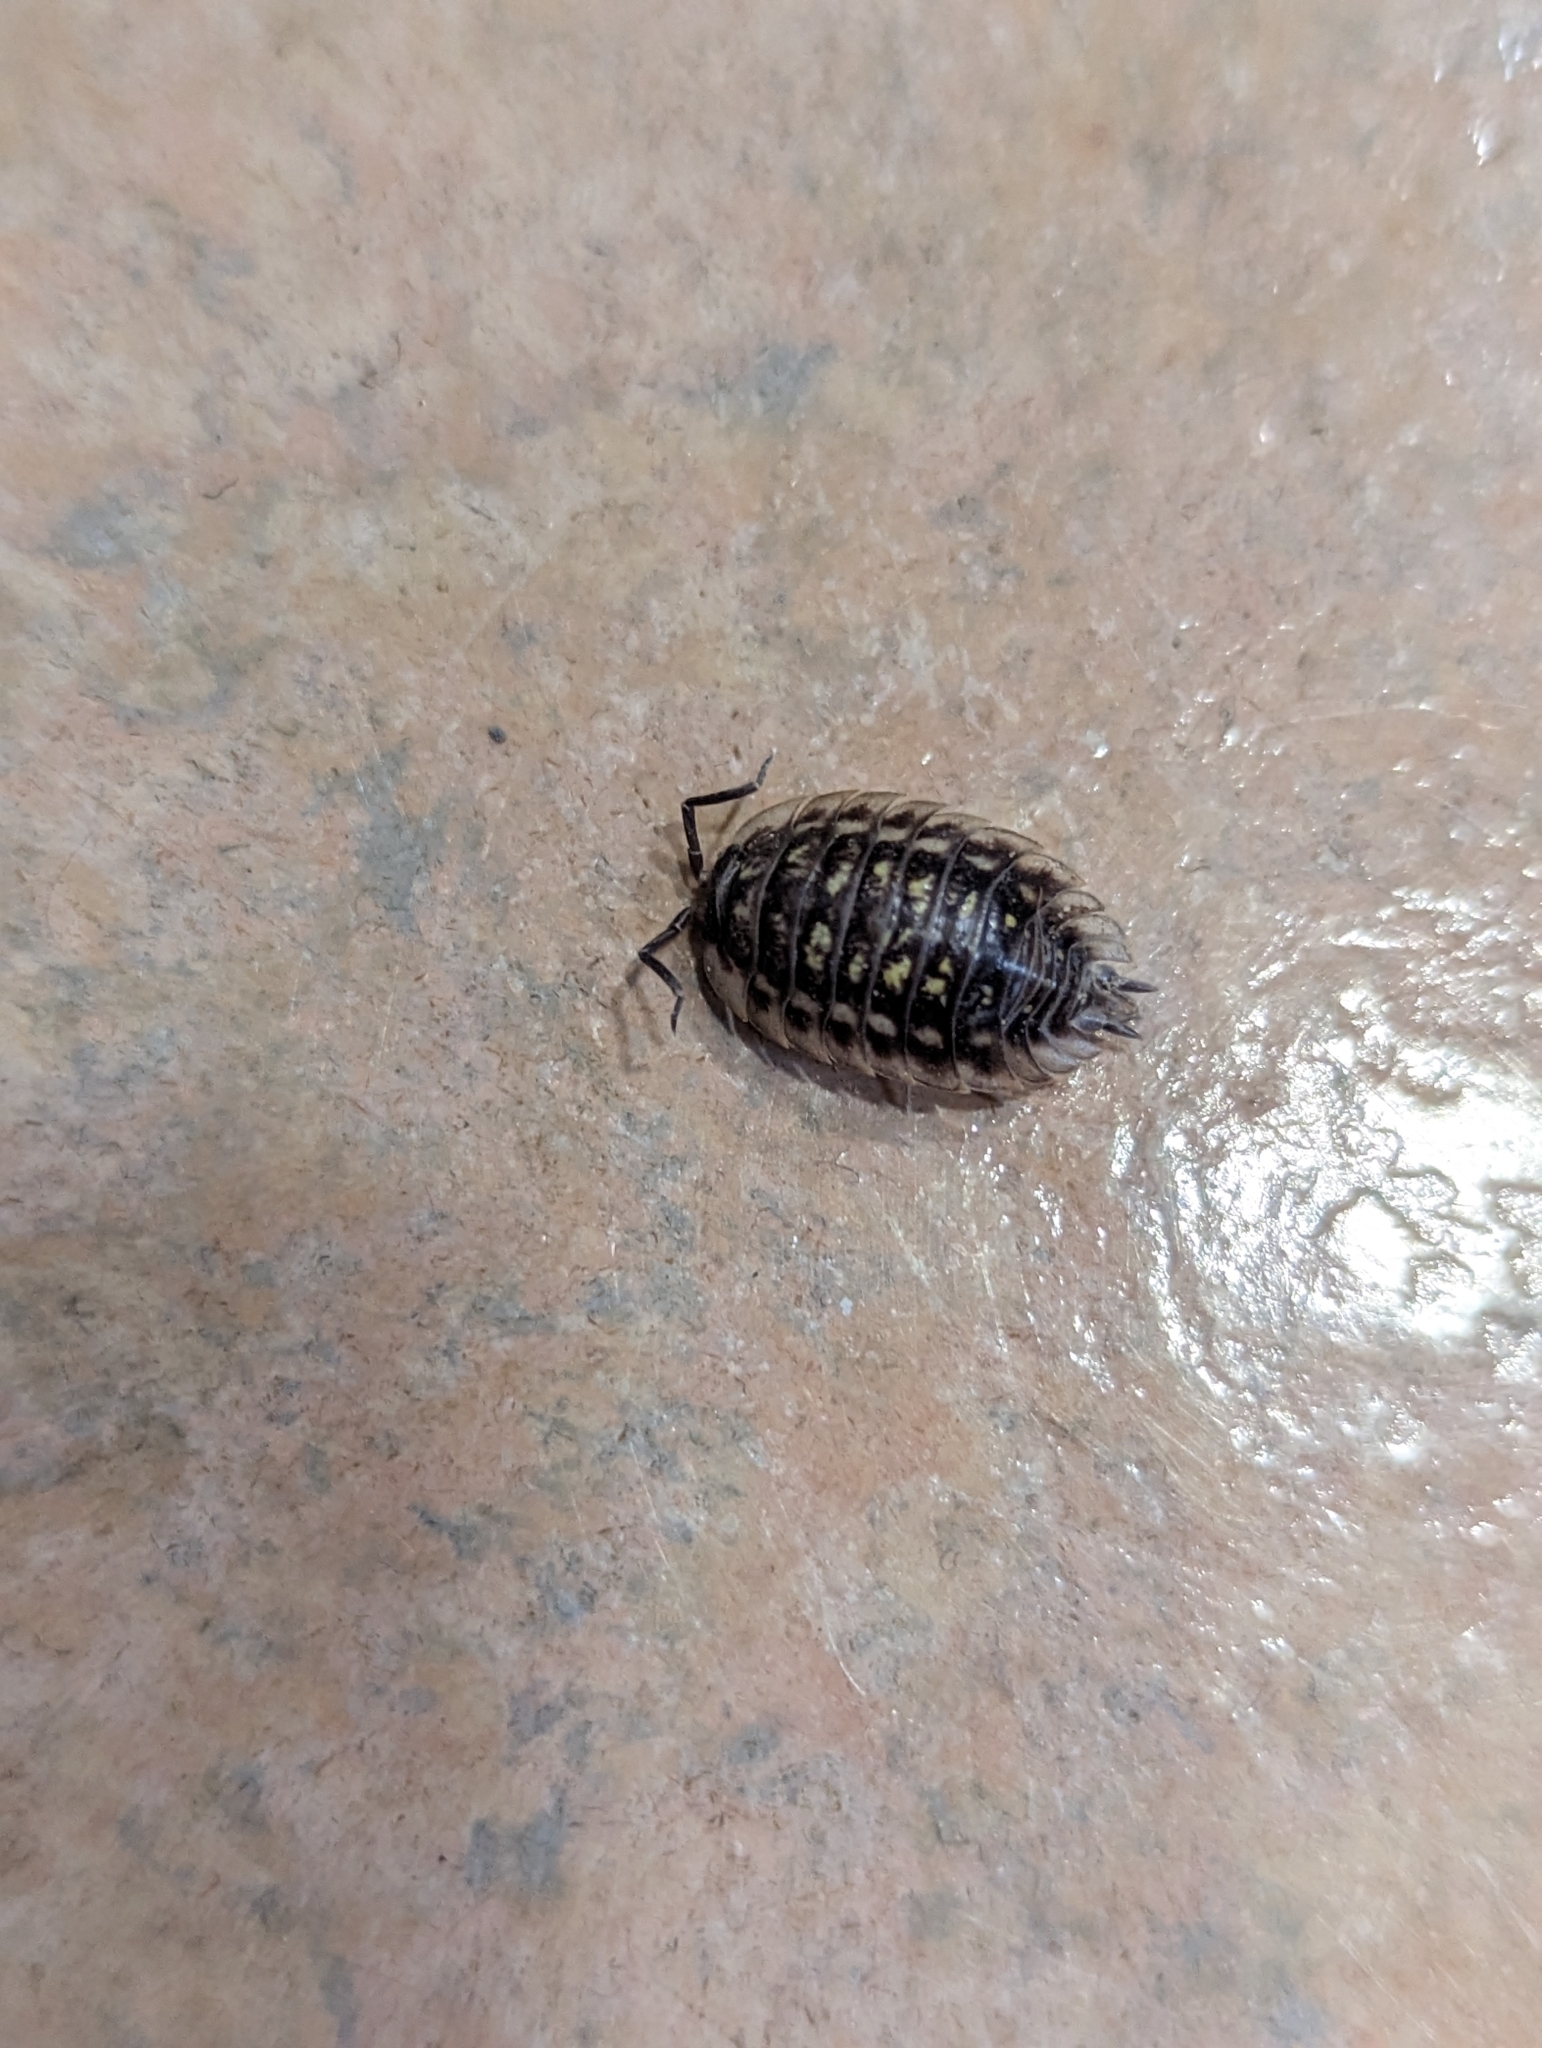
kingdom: Animalia
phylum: Arthropoda
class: Malacostraca
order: Isopoda
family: Oniscidae
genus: Oniscus
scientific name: Oniscus asellus
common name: Common shiny woodlouse
